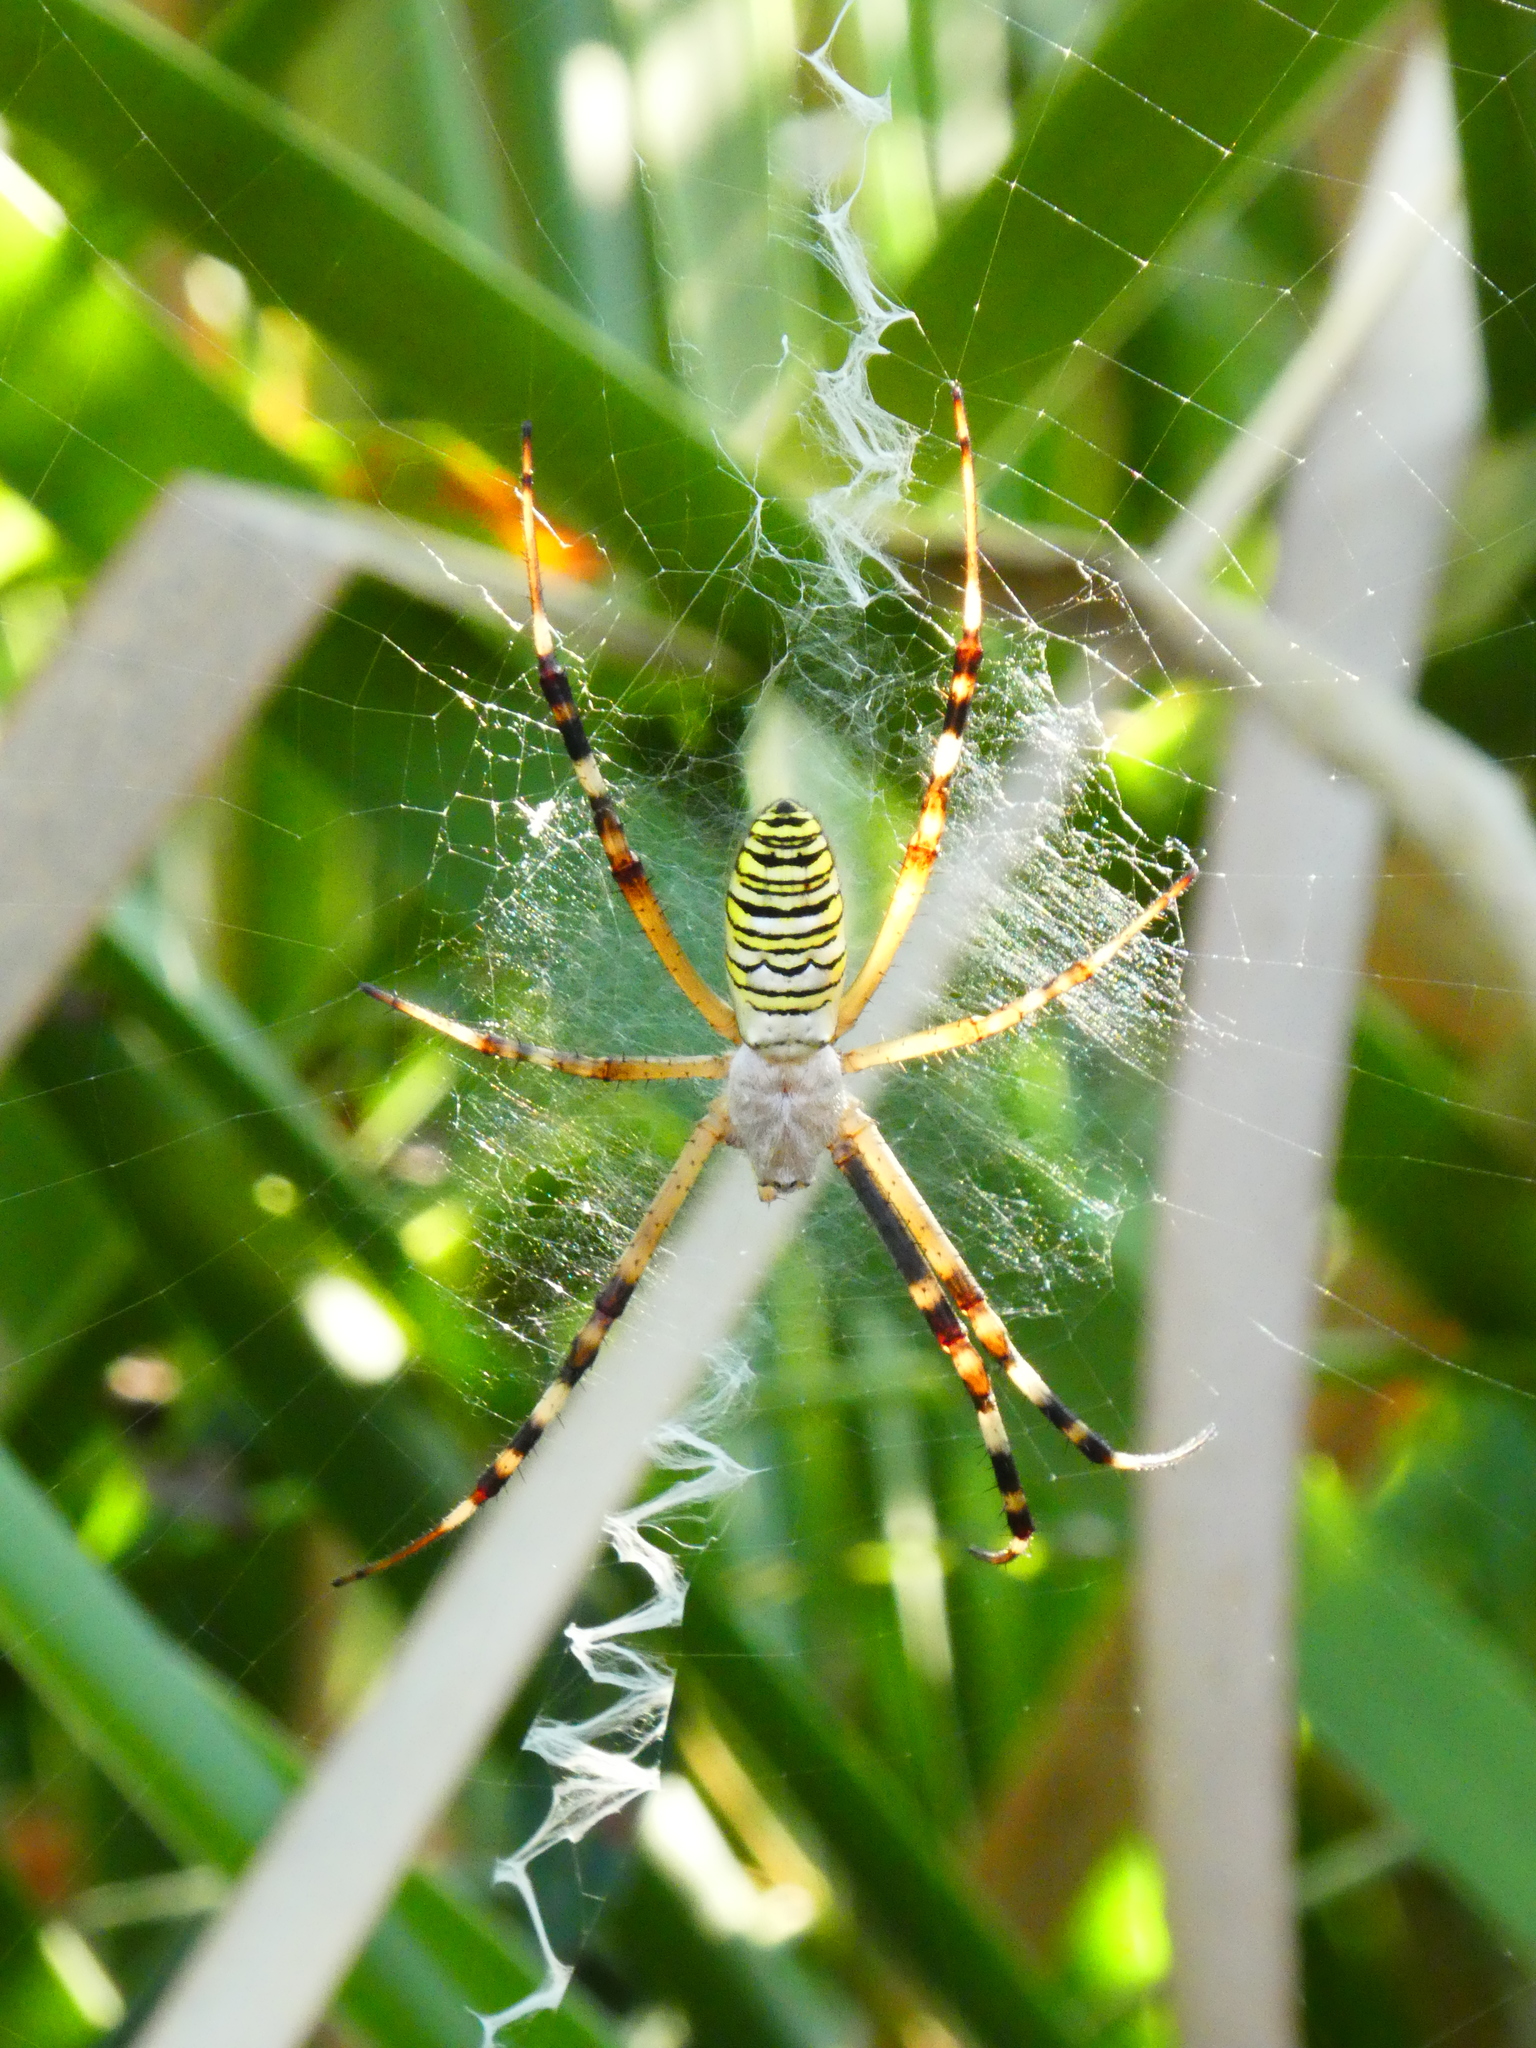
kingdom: Animalia
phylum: Arthropoda
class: Arachnida
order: Araneae
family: Araneidae
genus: Argiope
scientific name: Argiope bruennichi
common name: Wasp spider
